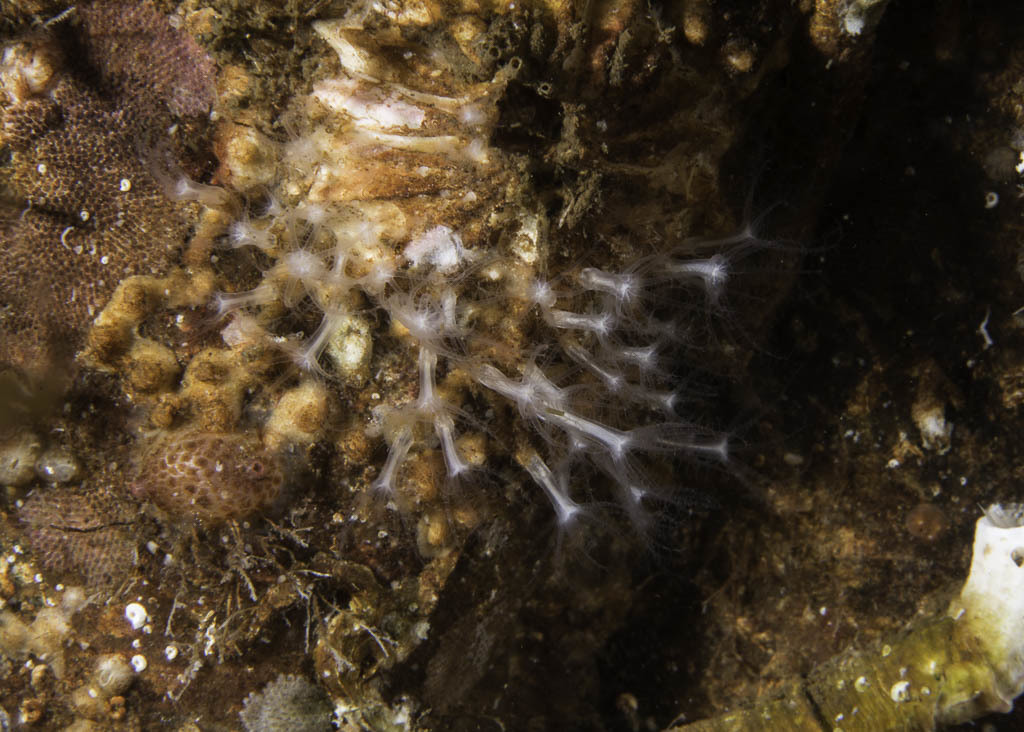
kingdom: Animalia
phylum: Cnidaria
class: Anthozoa
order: Scleralcyonacea
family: Sarcodictyonidae
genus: Sarcodictyon
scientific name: Sarcodictyon catenatum
